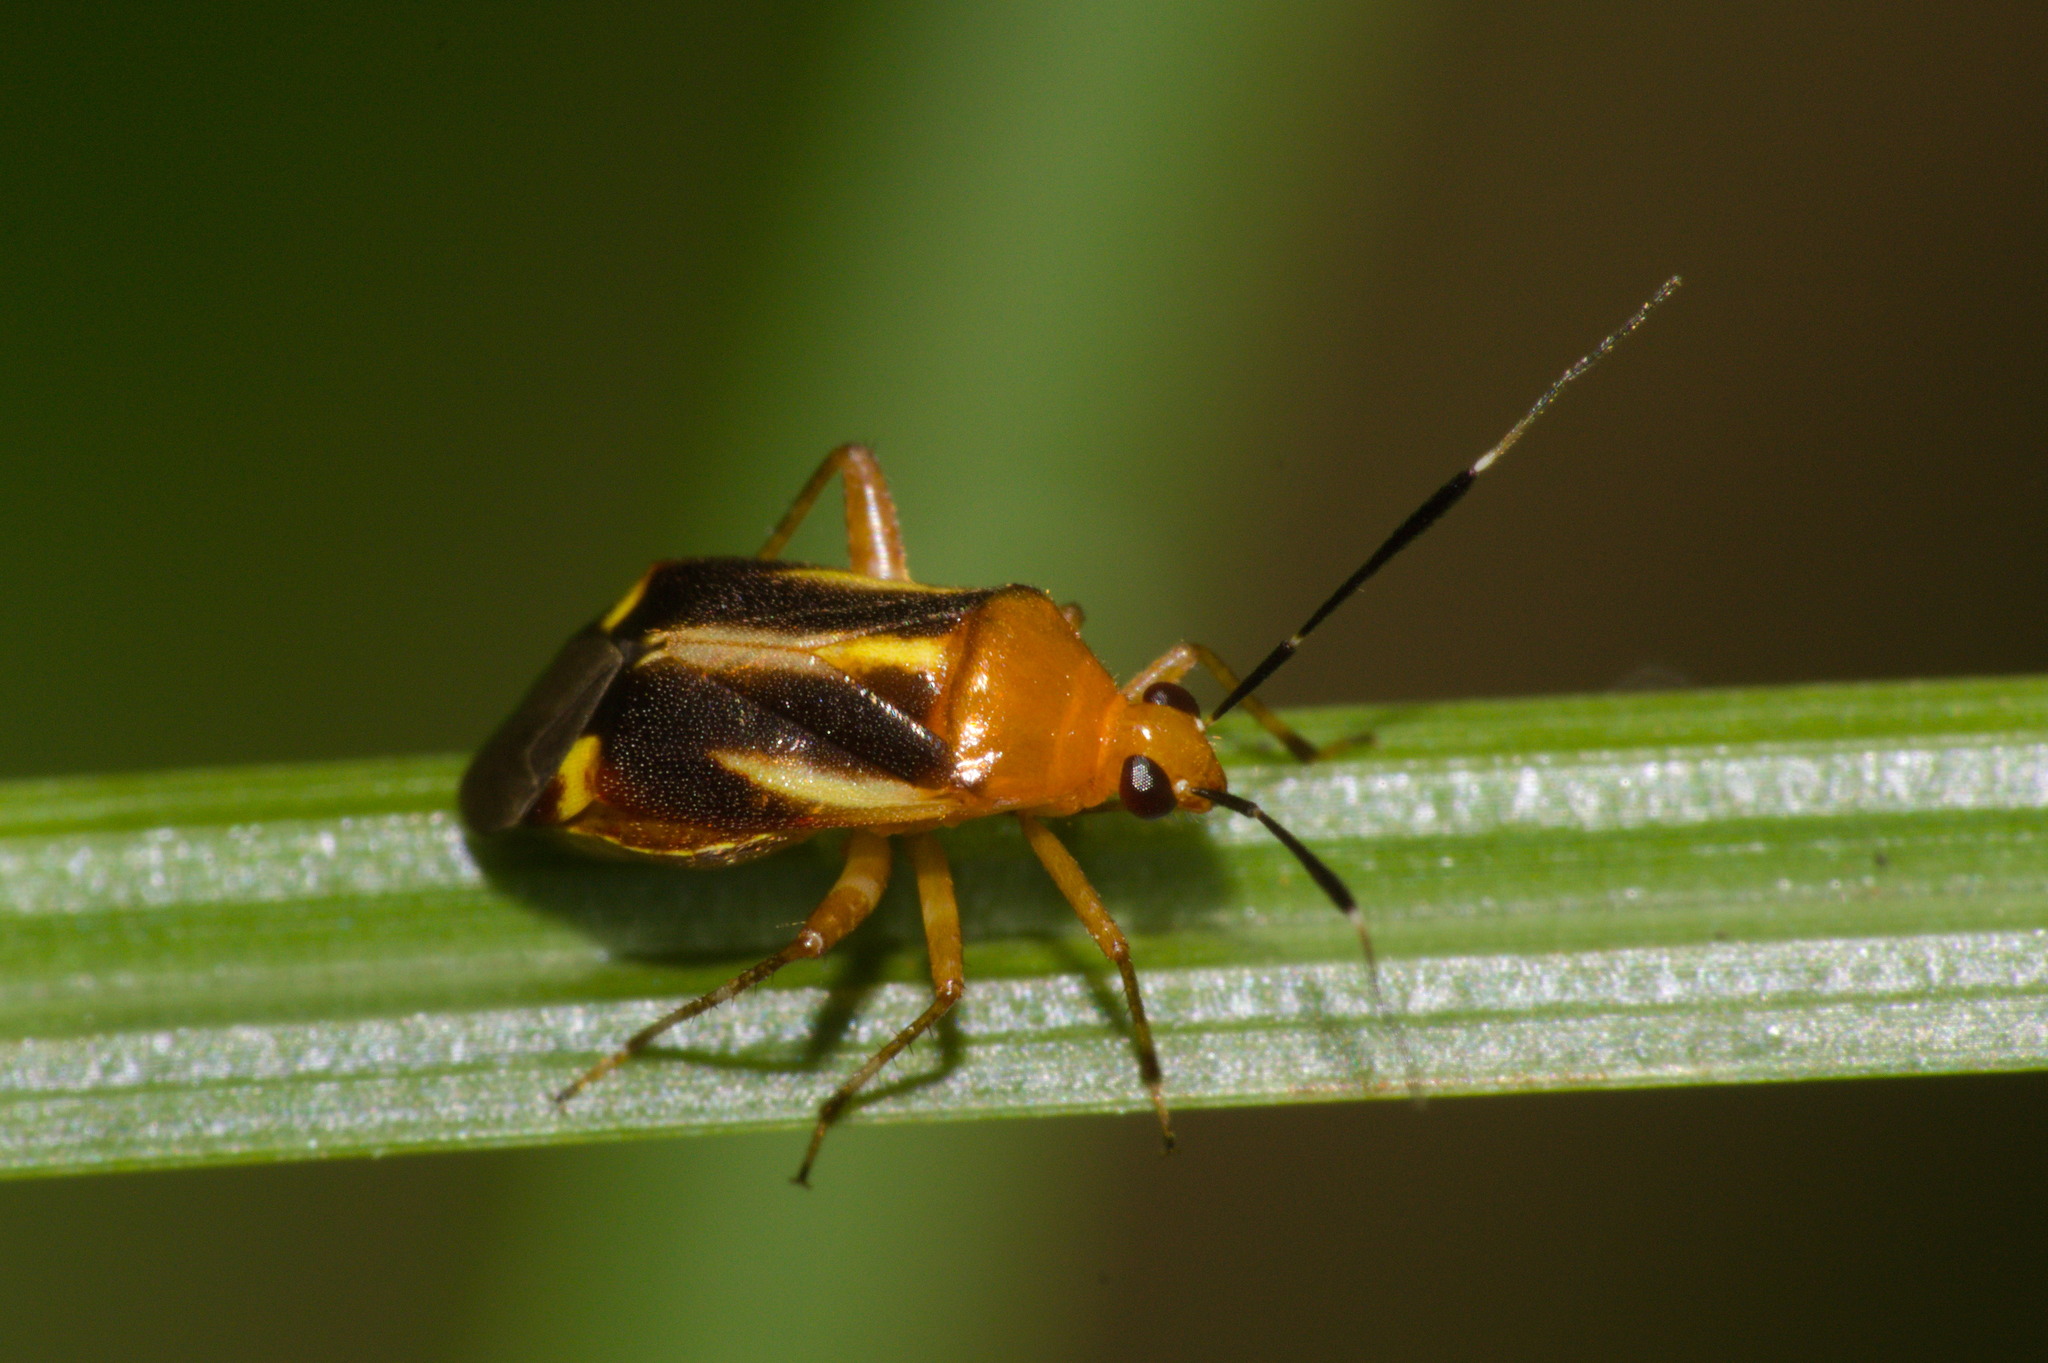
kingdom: Animalia
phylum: Arthropoda
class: Insecta
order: Hemiptera
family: Miridae
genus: Horciasinus
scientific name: Horciasinus signoreti
